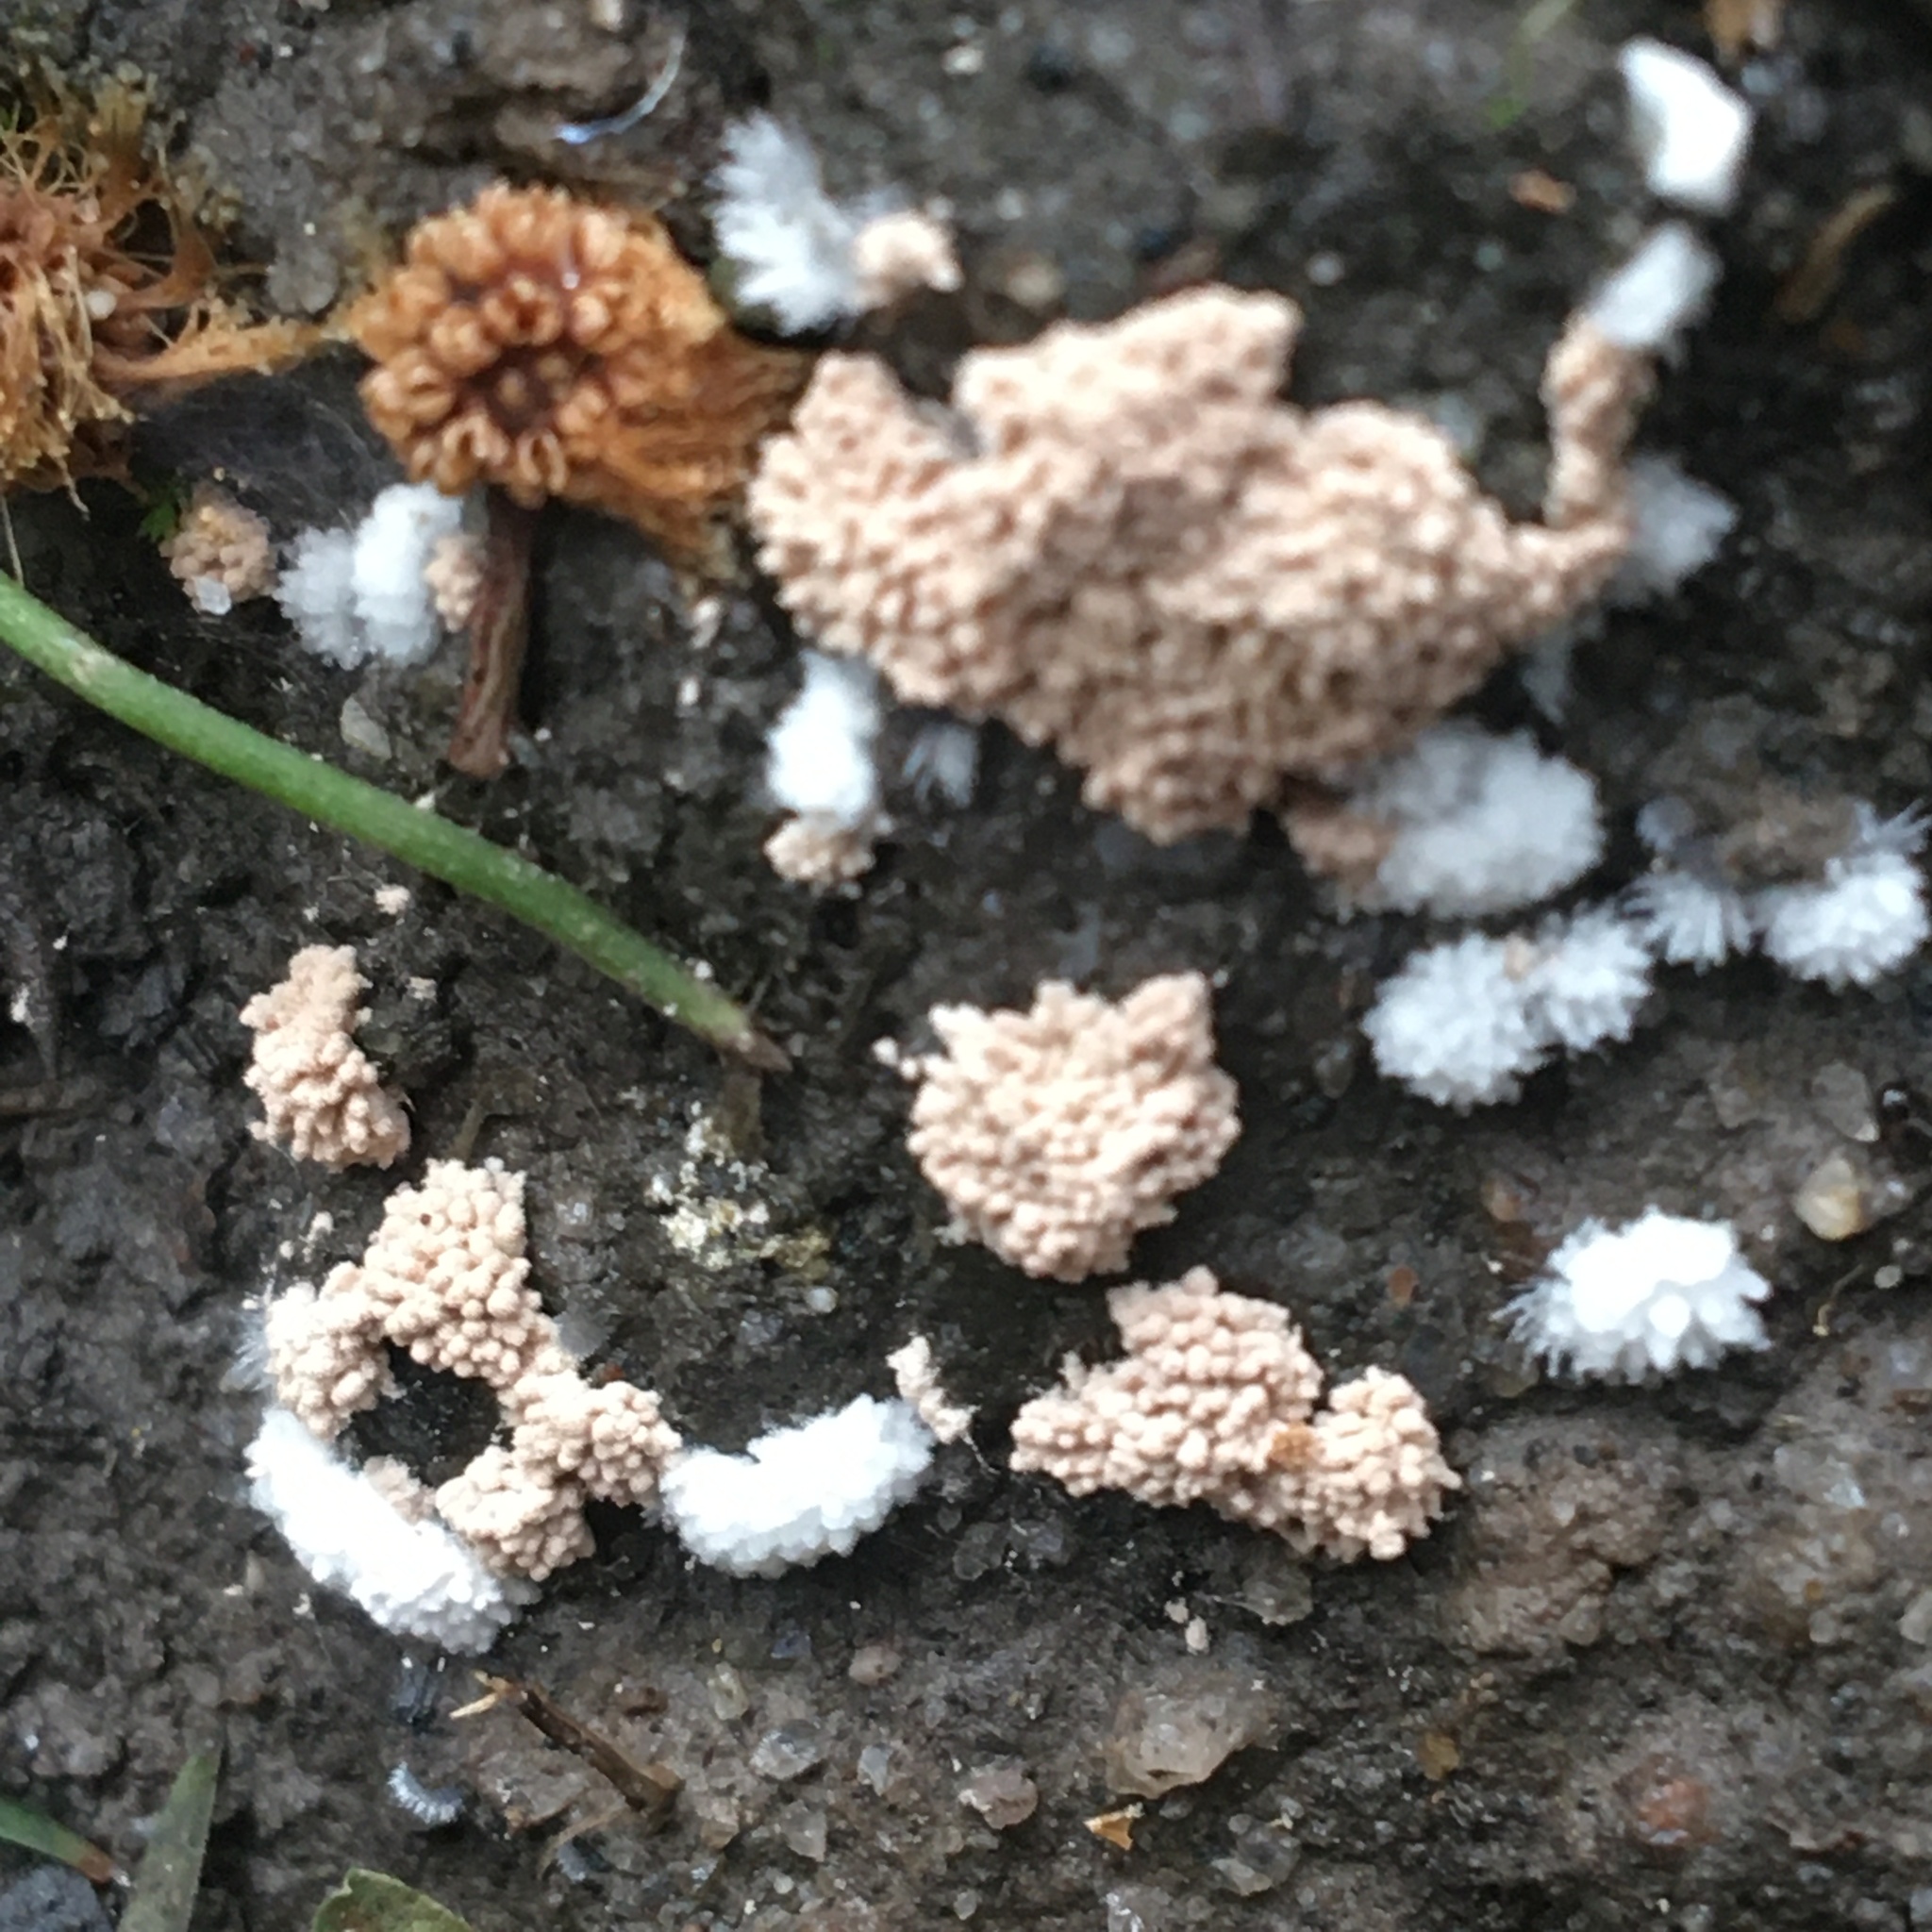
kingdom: Fungi
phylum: Ascomycota
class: Pezizomycetes
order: Pezizales
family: Pezizaceae
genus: Chromelosporiopsis
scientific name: Chromelosporiopsis carnea
